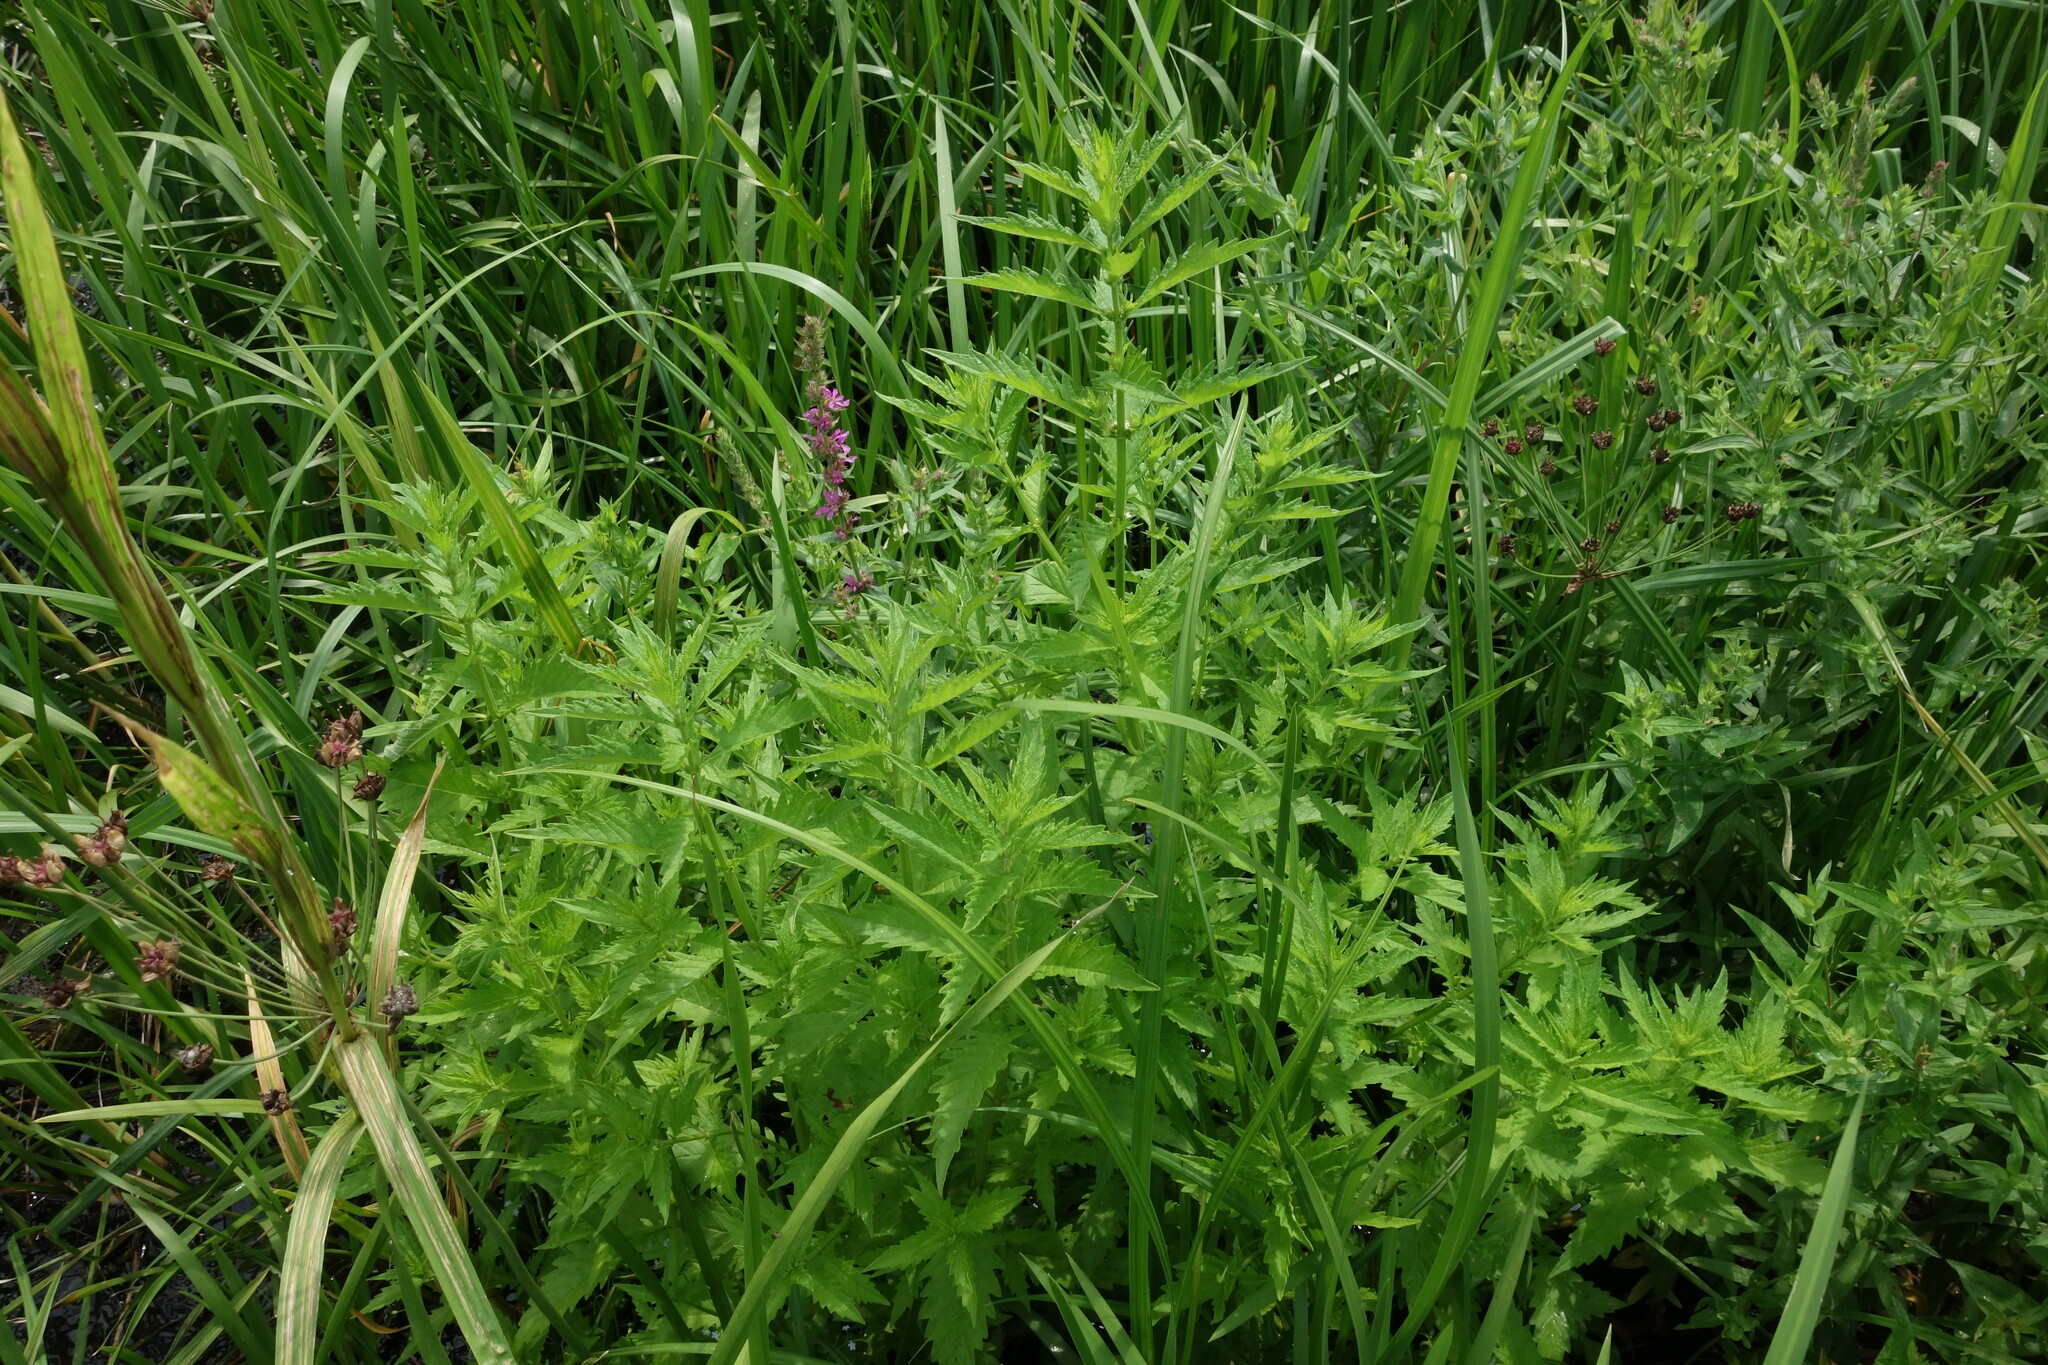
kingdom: Plantae
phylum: Tracheophyta
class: Magnoliopsida
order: Lamiales
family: Lamiaceae
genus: Lycopus
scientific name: Lycopus europaeus
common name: European bugleweed
